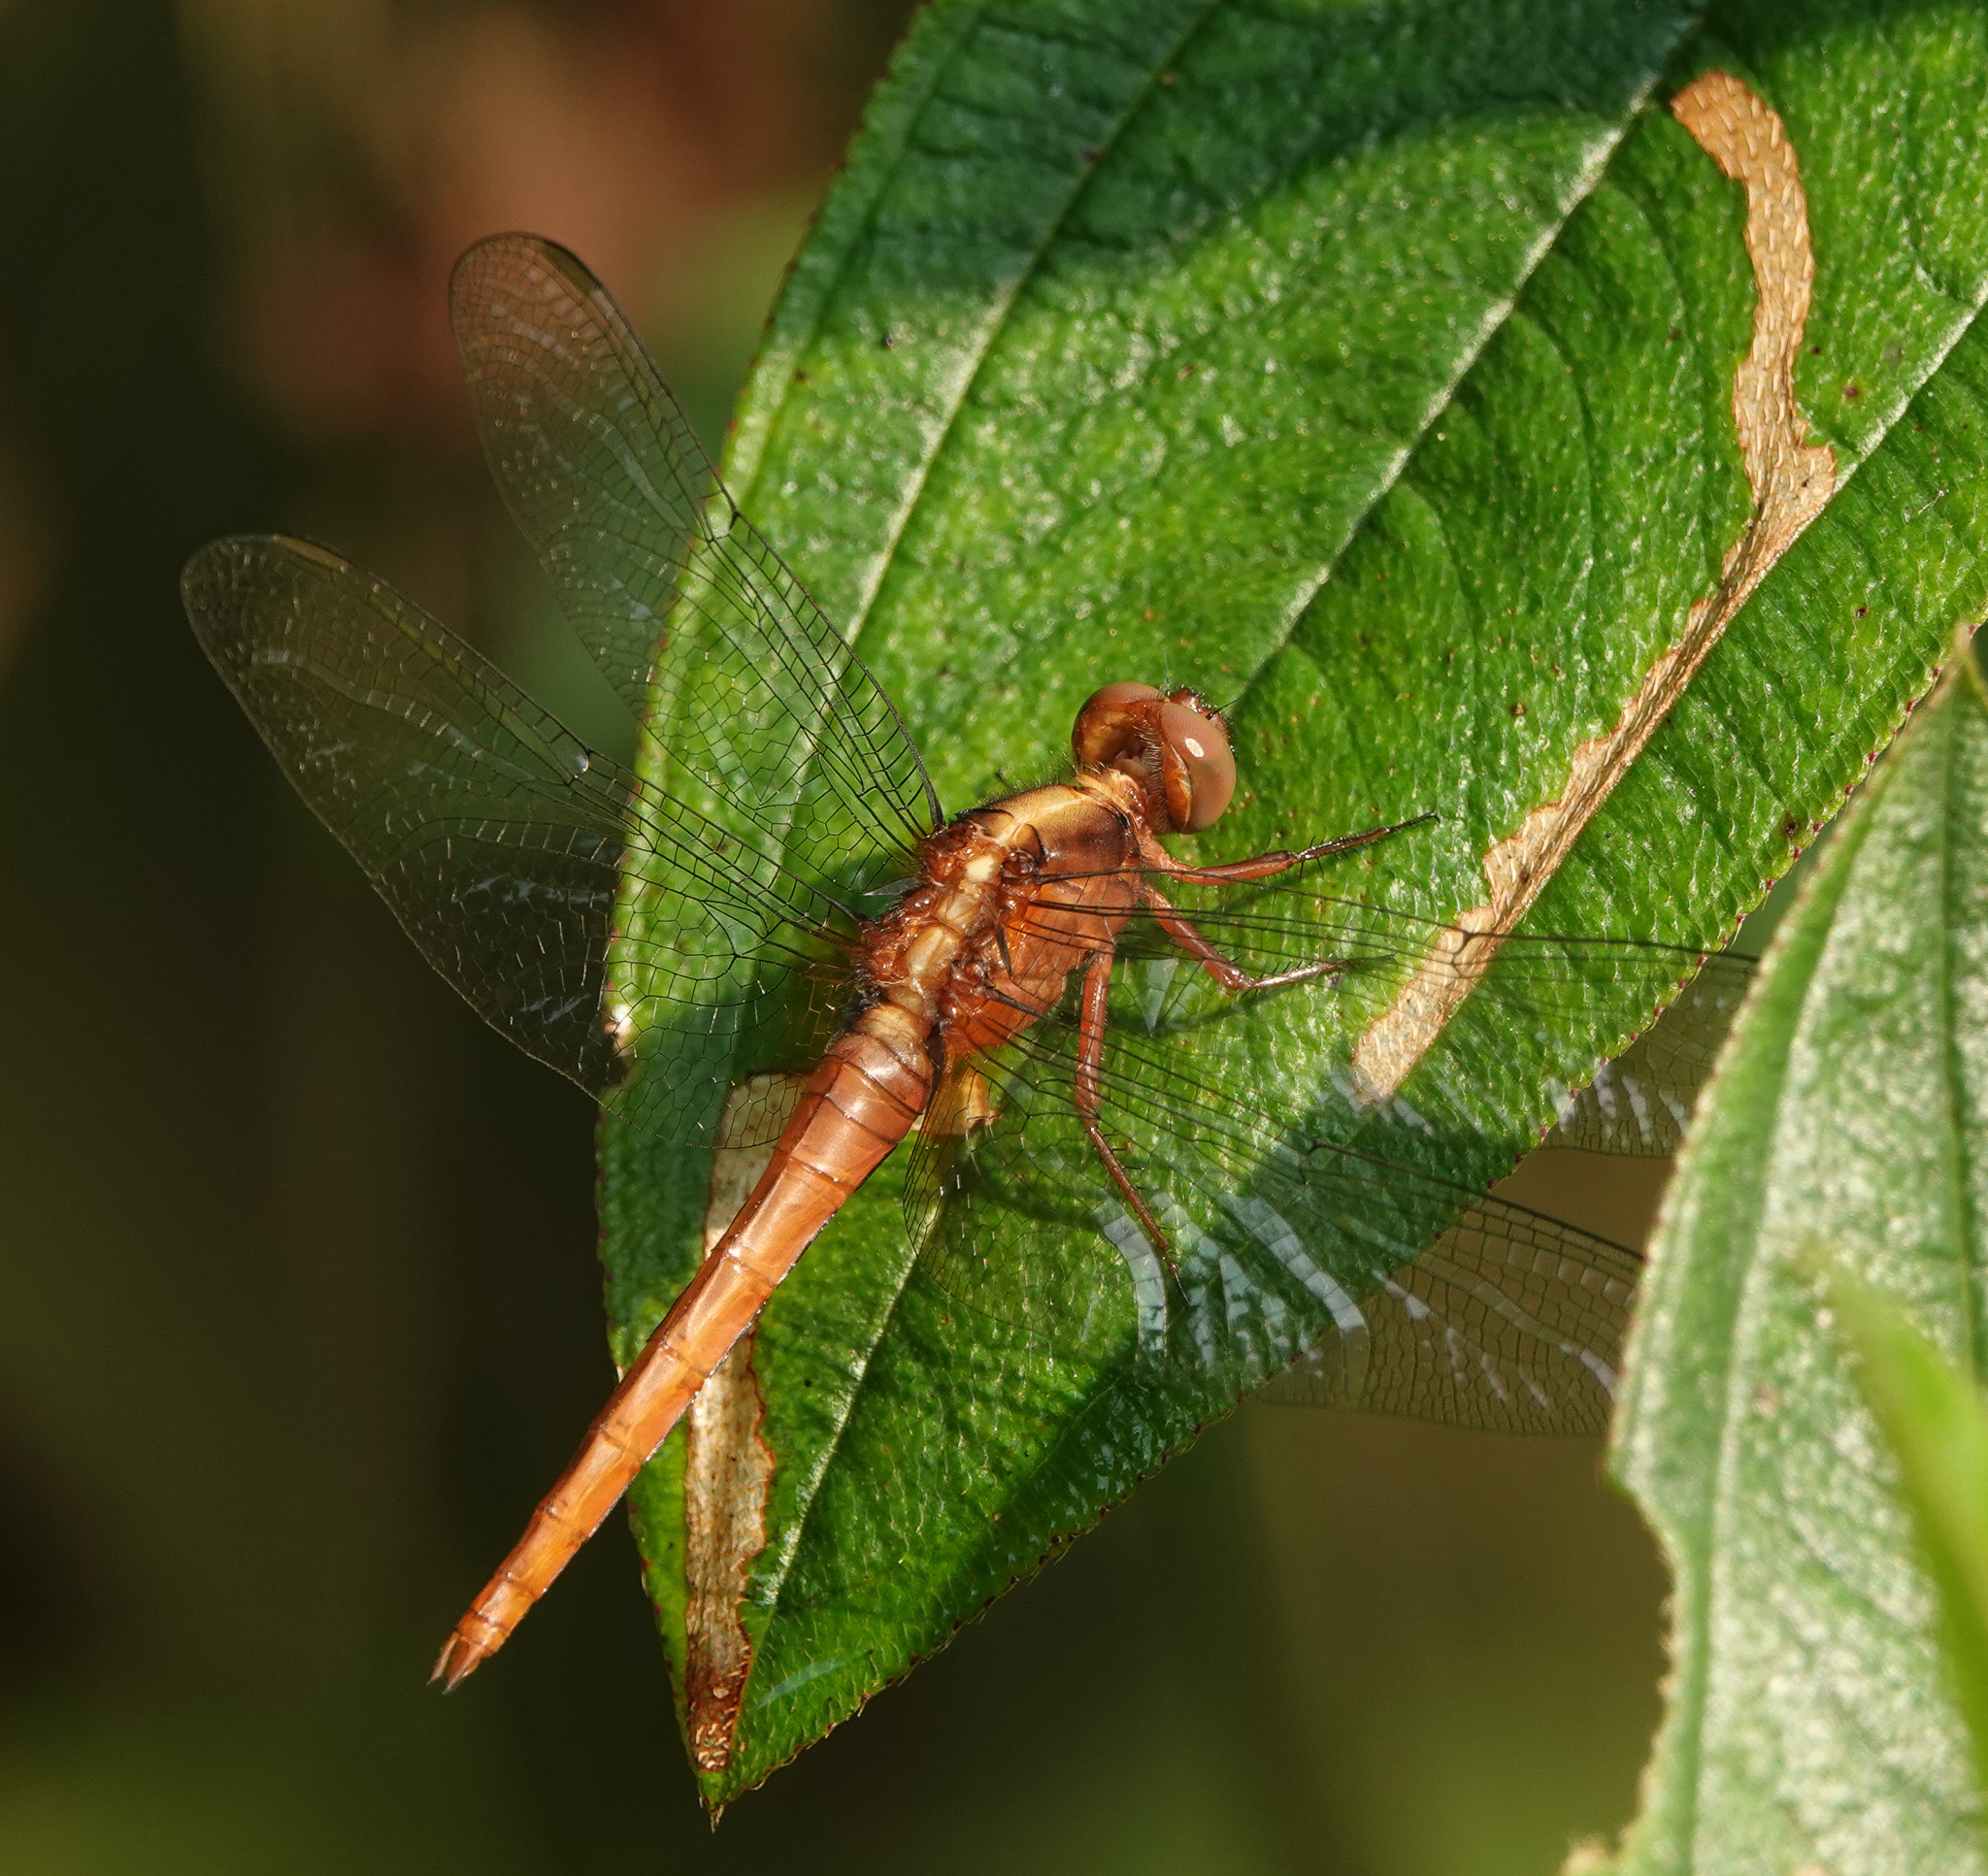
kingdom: Animalia
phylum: Arthropoda
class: Insecta
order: Odonata
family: Libellulidae
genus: Rhodothemis
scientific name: Rhodothemis rufa
